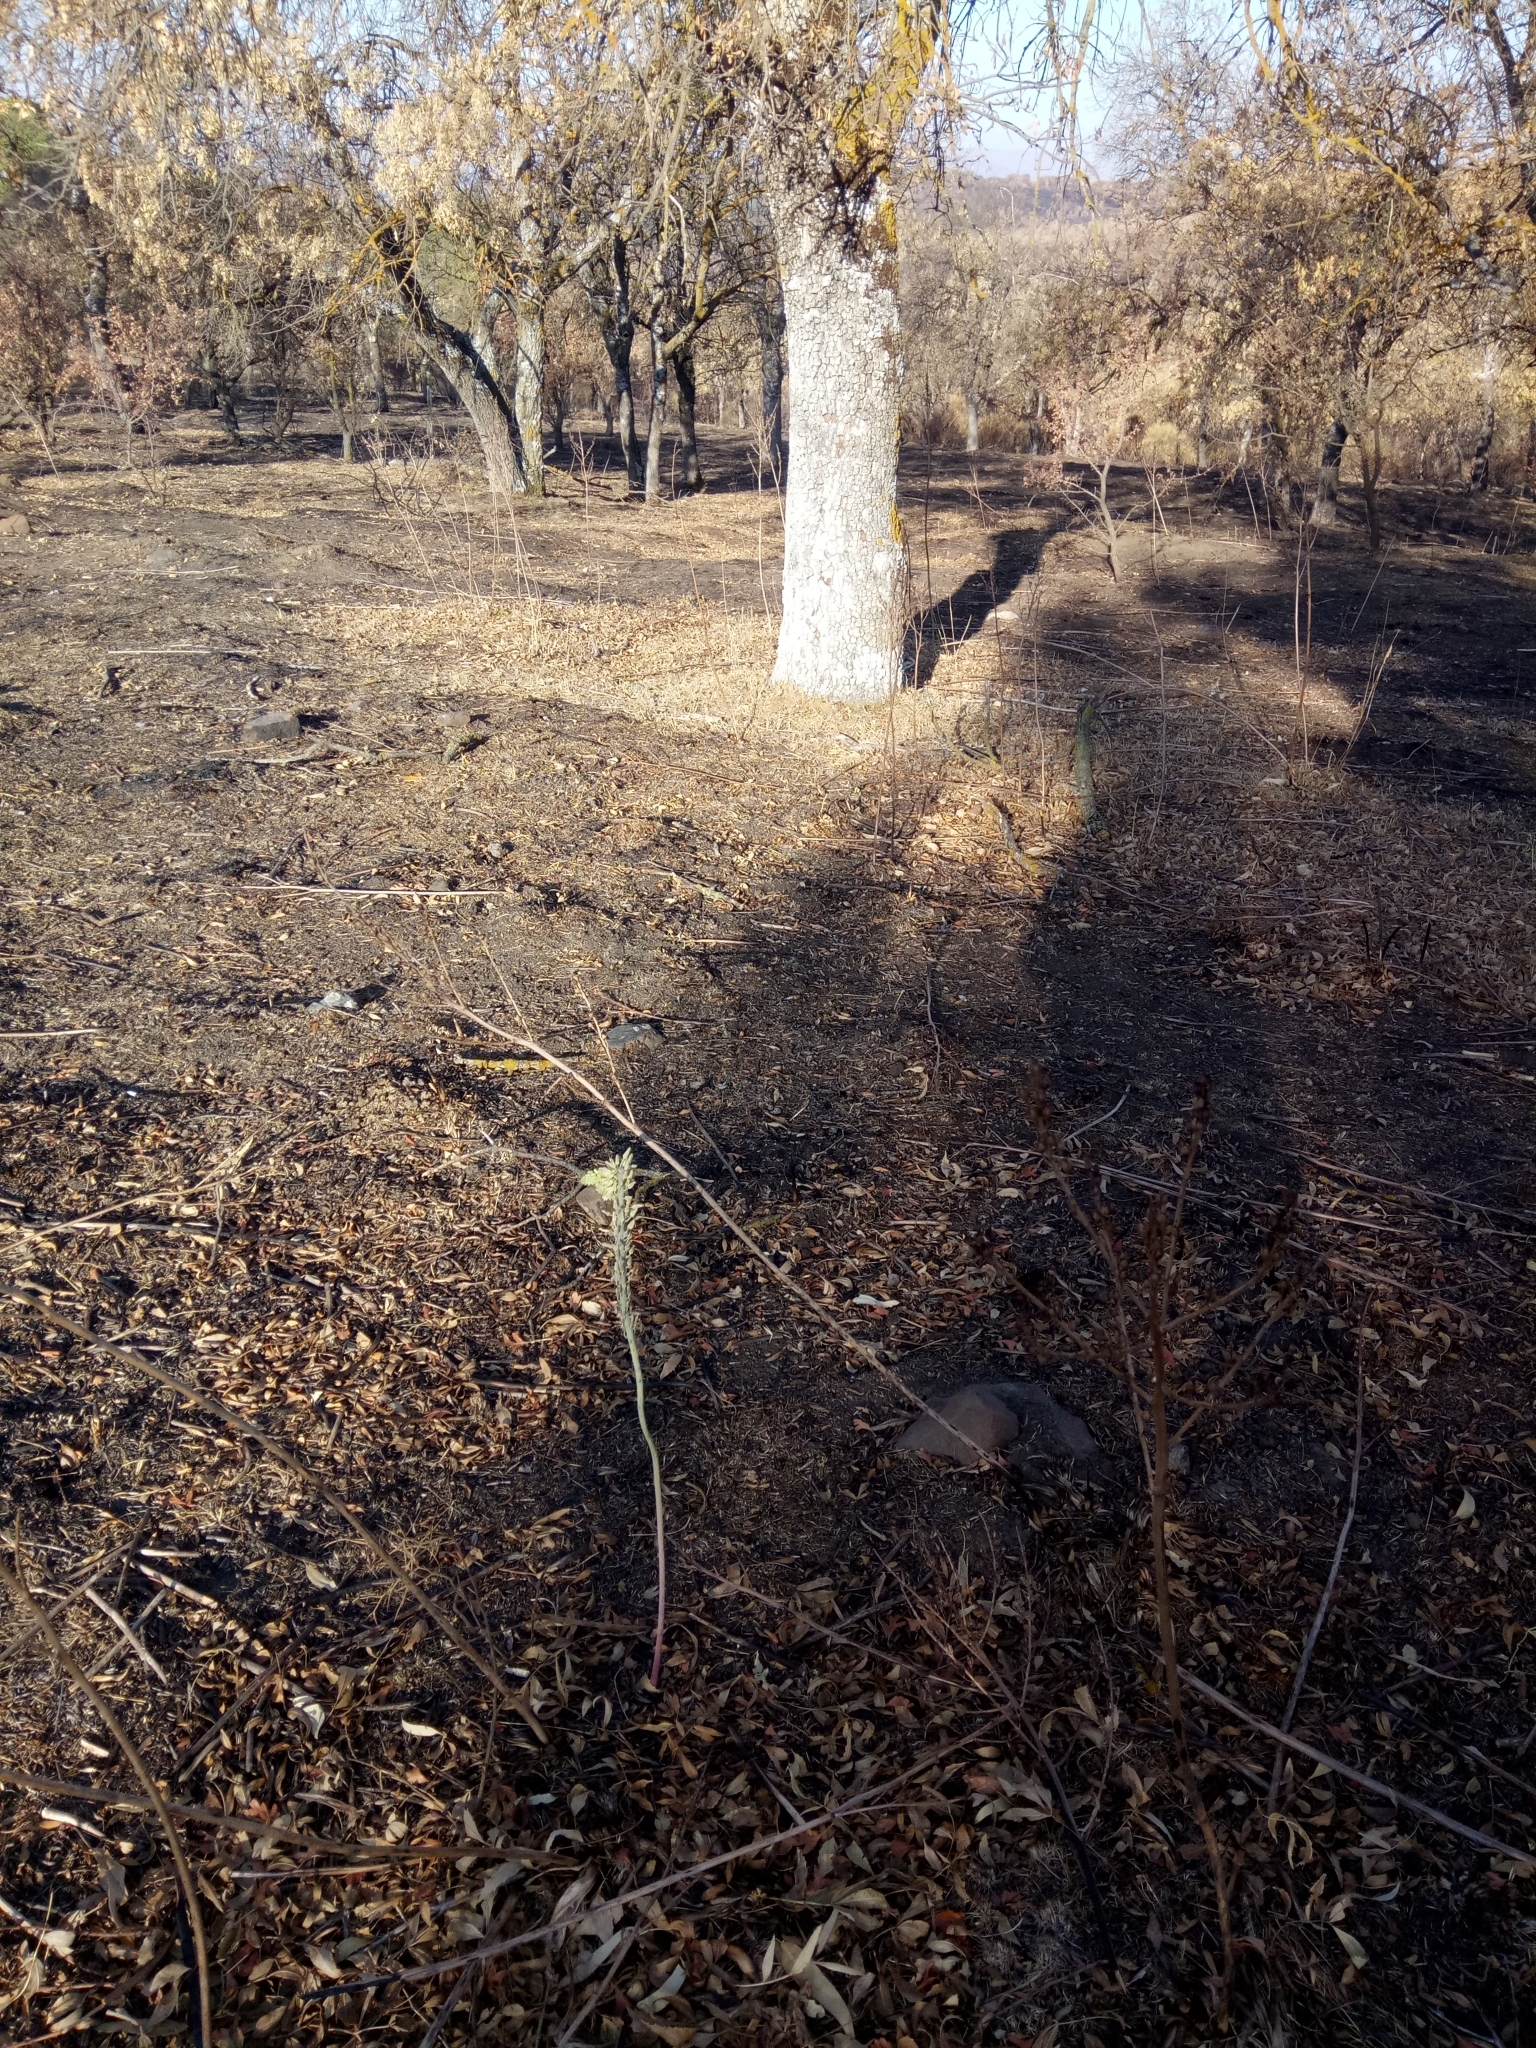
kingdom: Plantae
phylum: Tracheophyta
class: Liliopsida
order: Asparagales
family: Asparagaceae
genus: Drimia
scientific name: Drimia anthericoides
